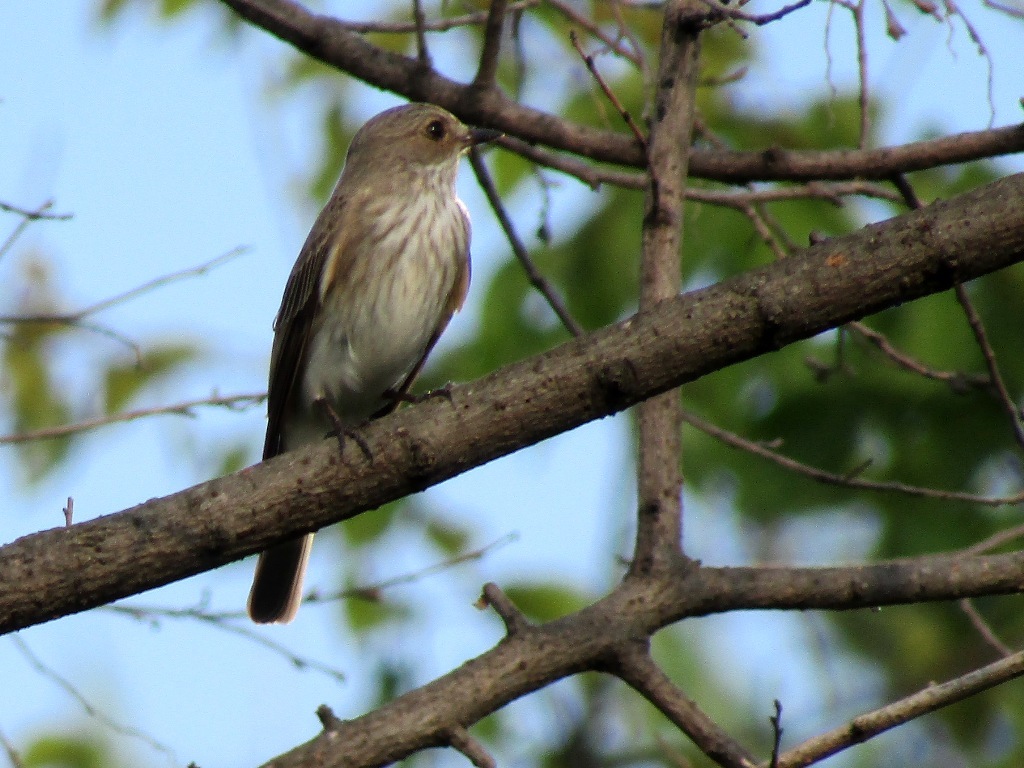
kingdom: Animalia
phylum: Chordata
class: Aves
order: Passeriformes
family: Muscicapidae
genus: Muscicapa
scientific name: Muscicapa striata
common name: Spotted flycatcher
